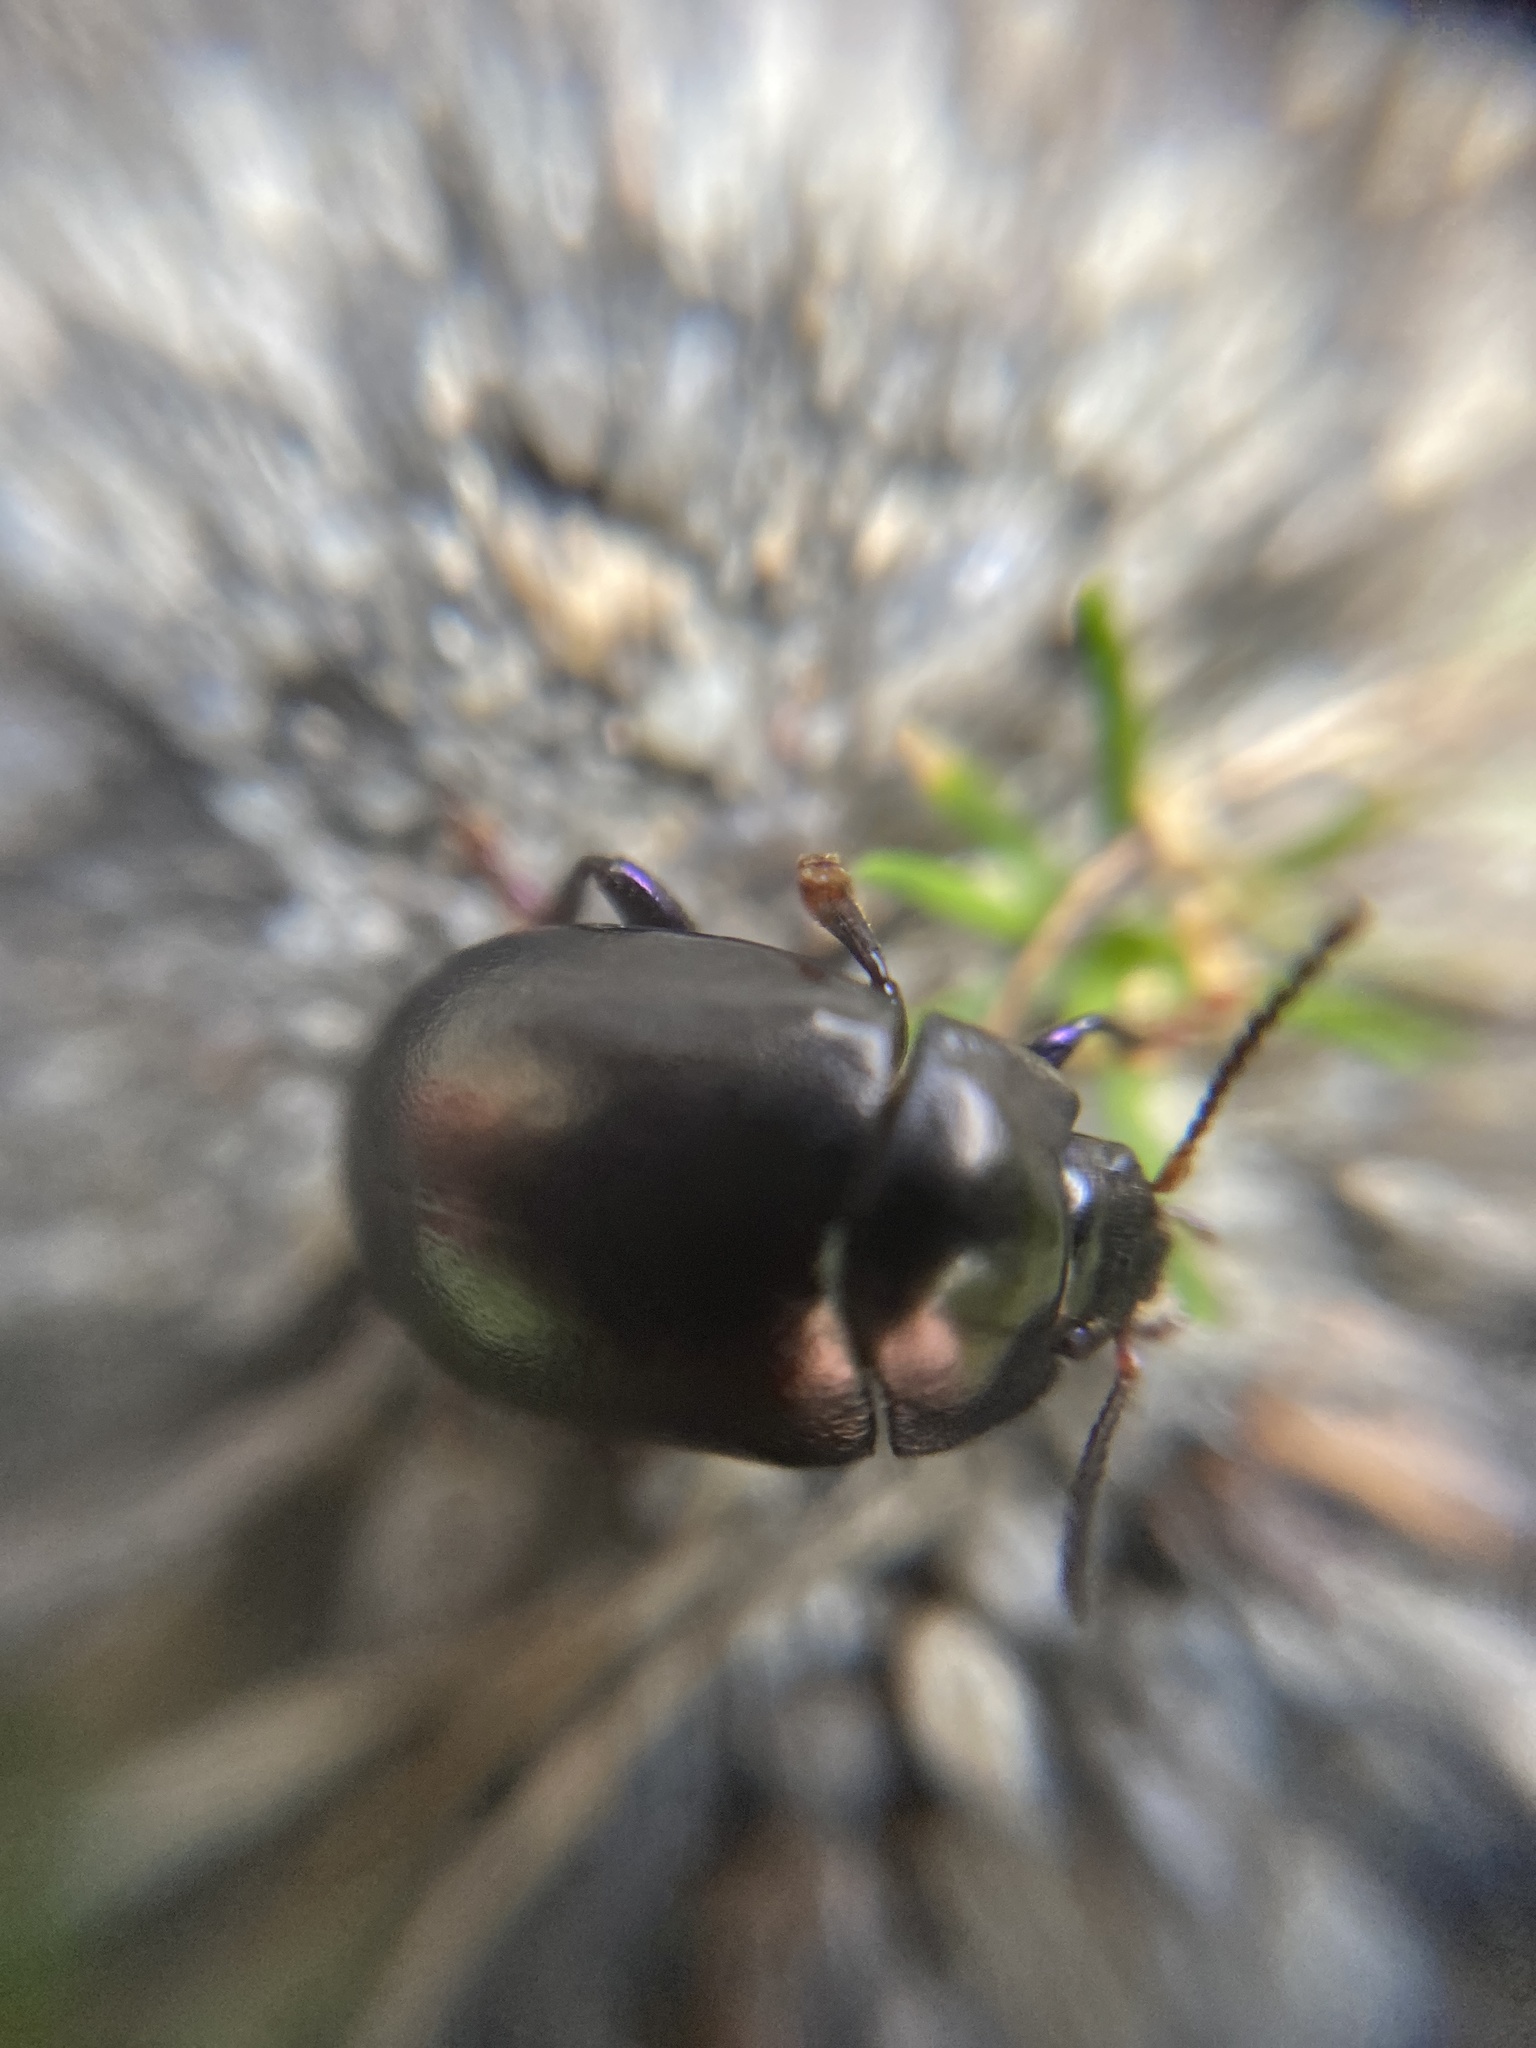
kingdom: Animalia
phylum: Arthropoda
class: Insecta
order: Coleoptera
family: Chrysomelidae
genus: Chrysolina
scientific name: Chrysolina sturmi
